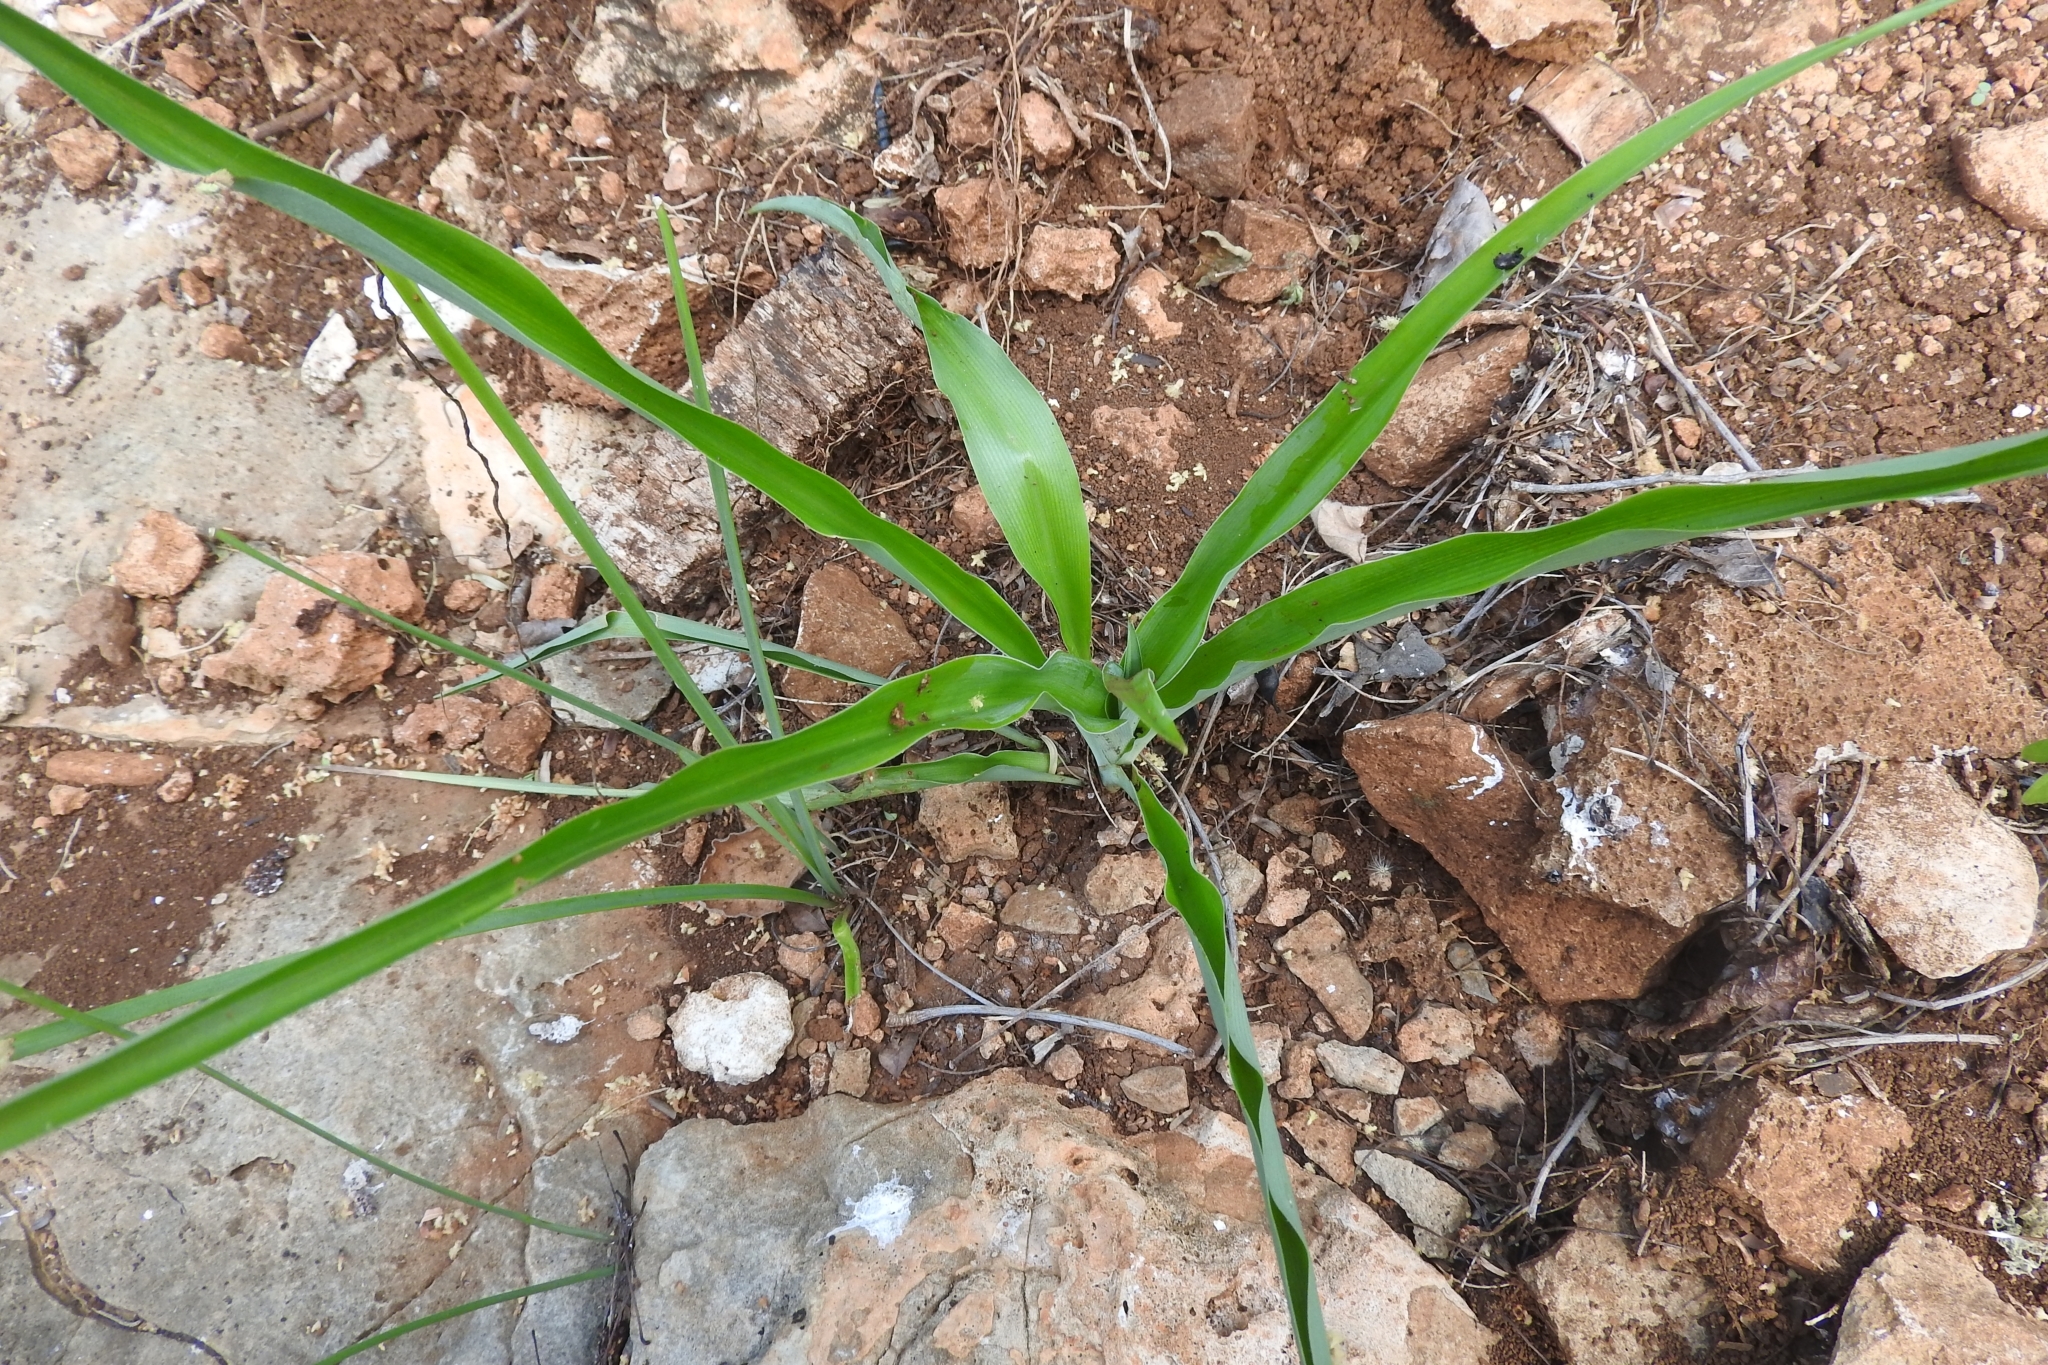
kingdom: Plantae
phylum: Tracheophyta
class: Liliopsida
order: Asparagales
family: Asparagaceae
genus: Echeandia
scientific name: Echeandia luteola
